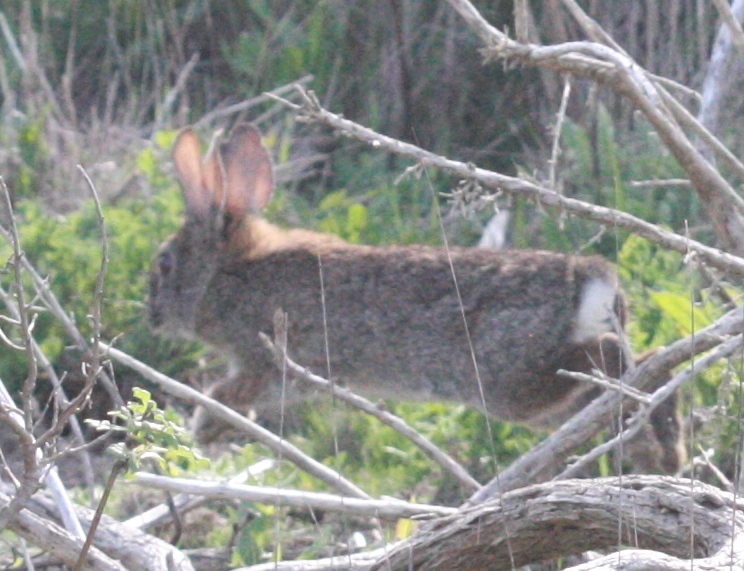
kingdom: Animalia
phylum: Chordata
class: Mammalia
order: Lagomorpha
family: Leporidae
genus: Sylvilagus
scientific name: Sylvilagus bachmani
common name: Brush rabbit
